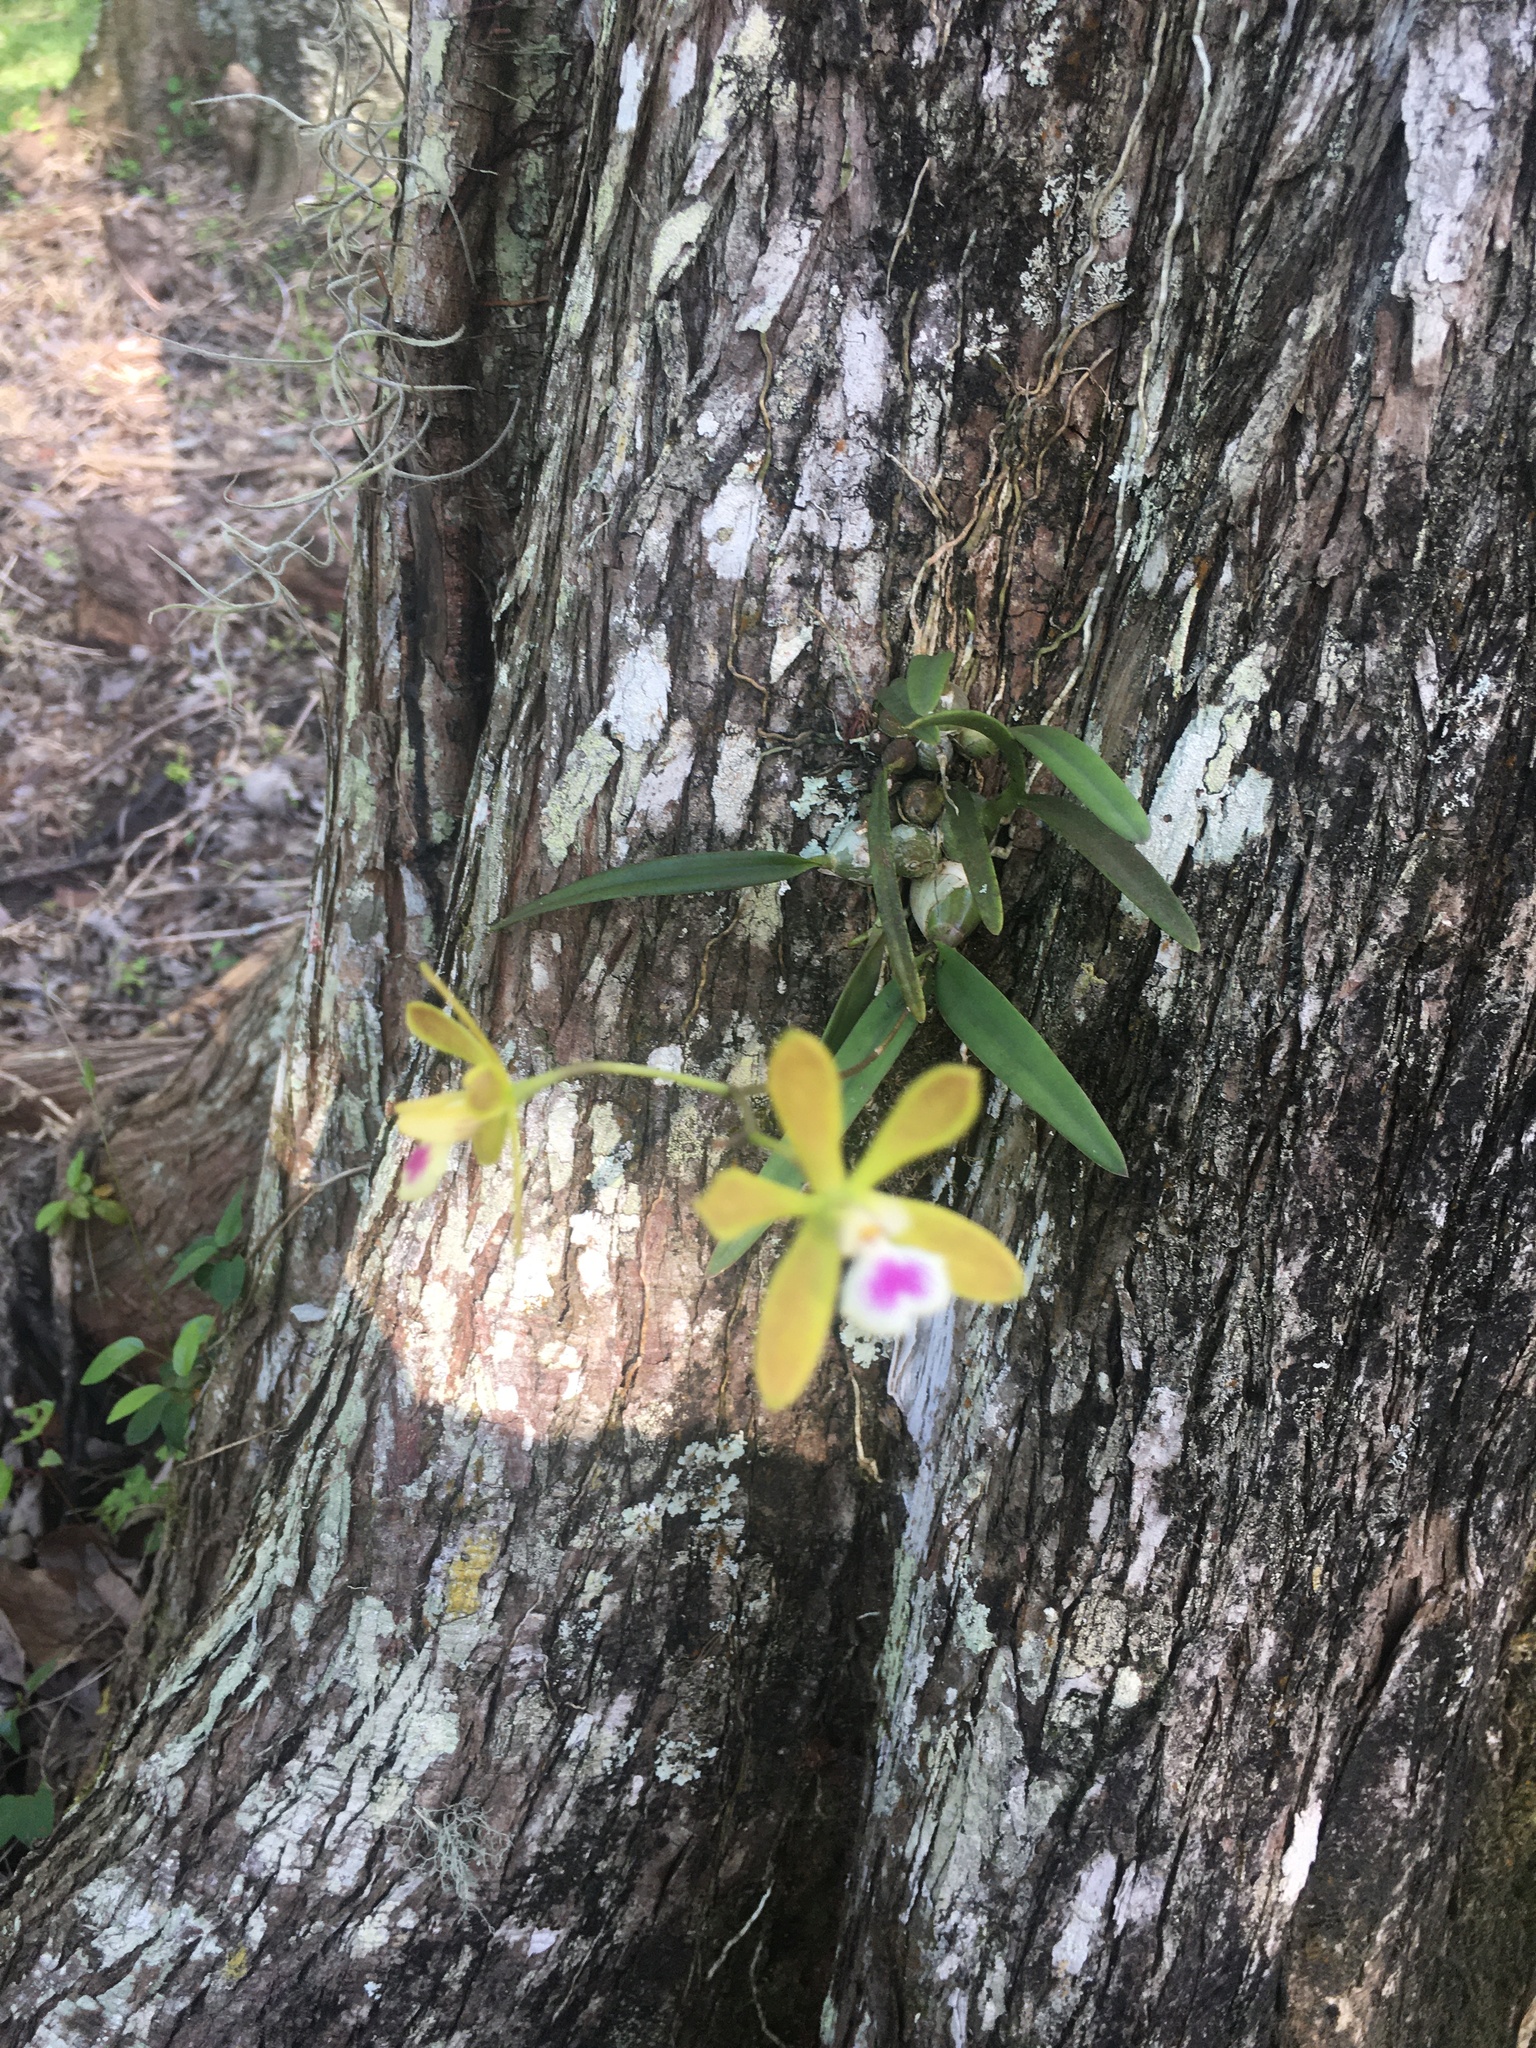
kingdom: Plantae
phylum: Tracheophyta
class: Liliopsida
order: Asparagales
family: Orchidaceae
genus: Encyclia
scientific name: Encyclia tampensis
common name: Florida butterfly orchid
